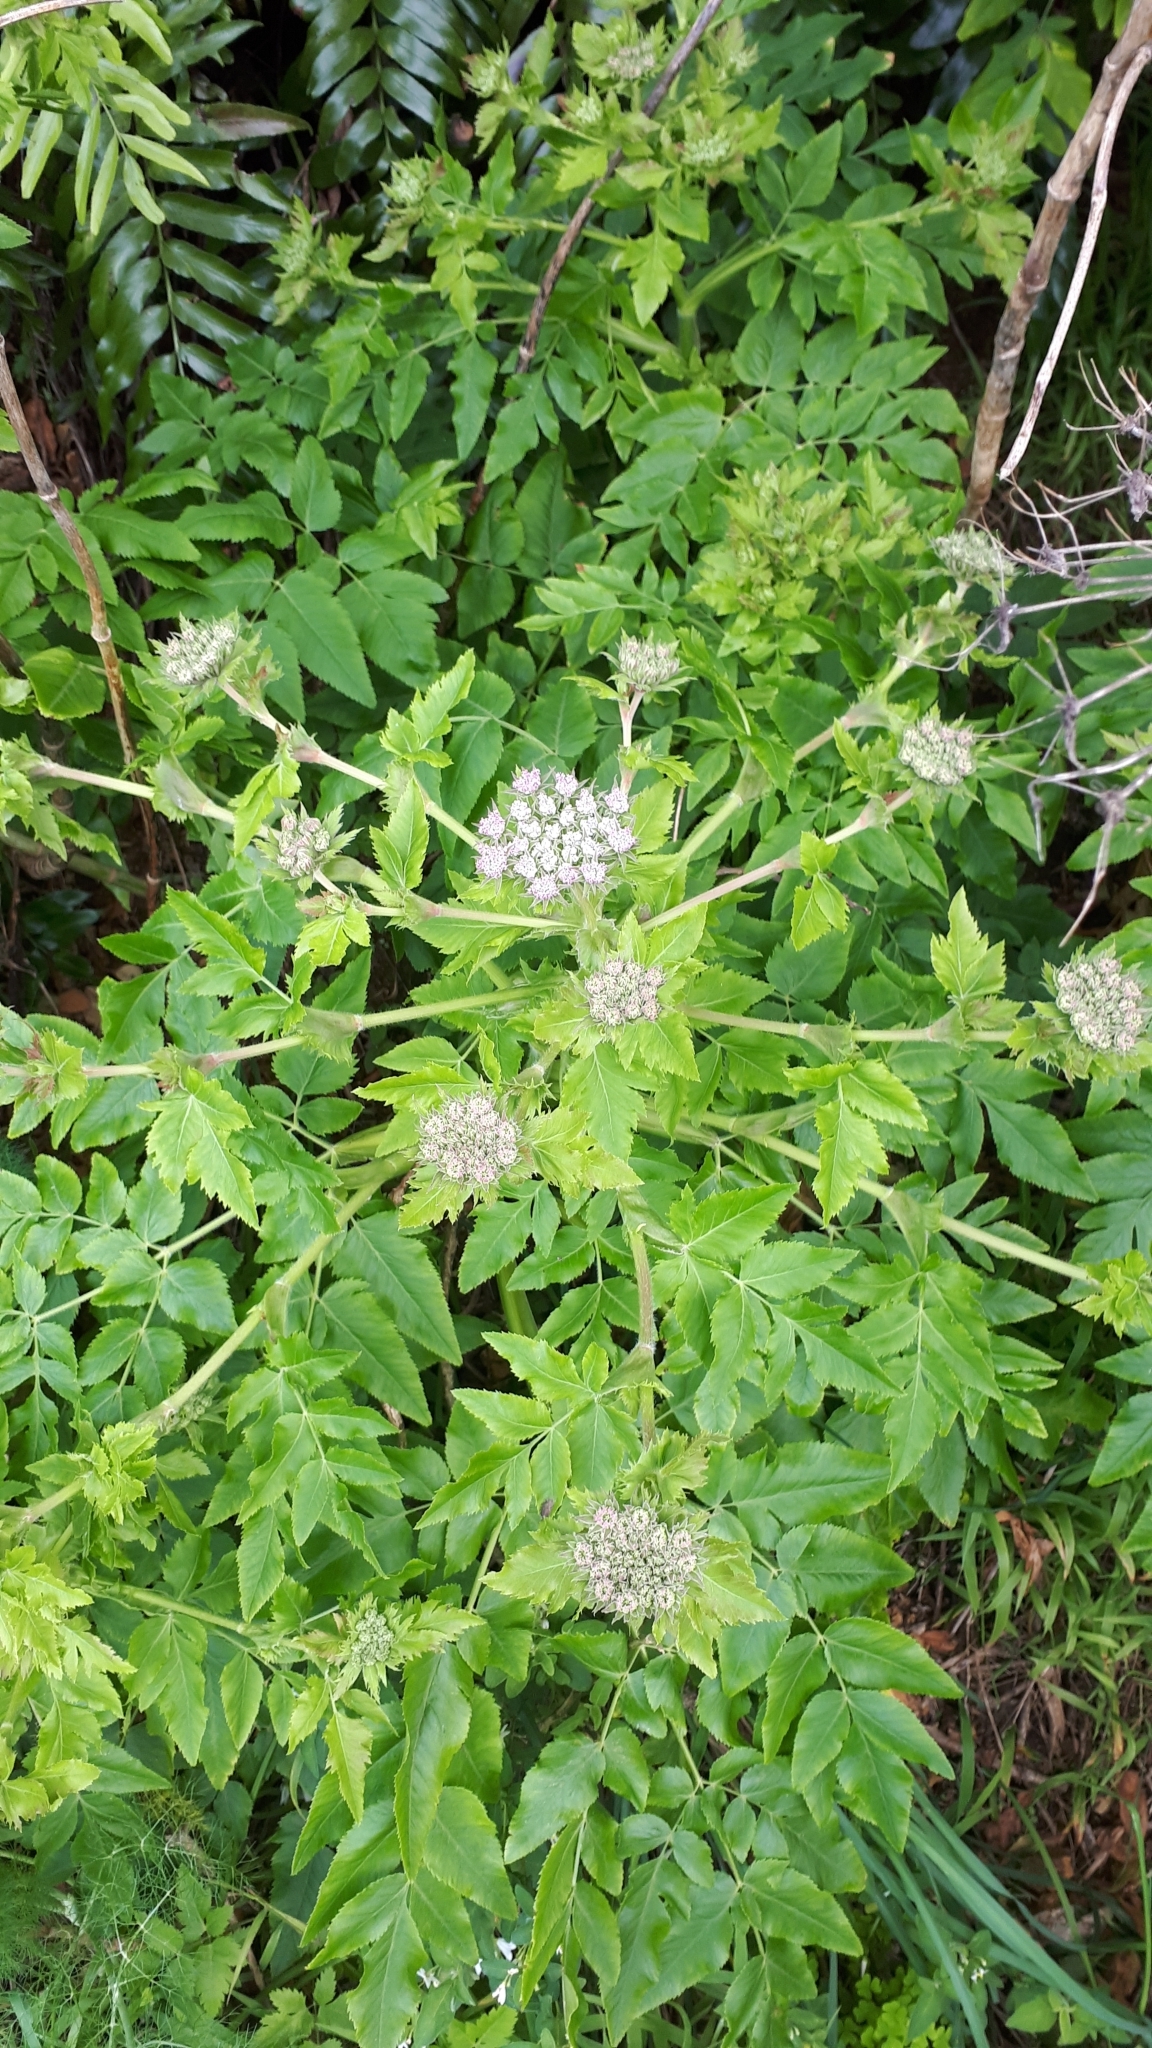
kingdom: Plantae
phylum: Tracheophyta
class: Magnoliopsida
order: Apiales
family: Apiaceae
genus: Daucus
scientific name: Daucus decipiens
